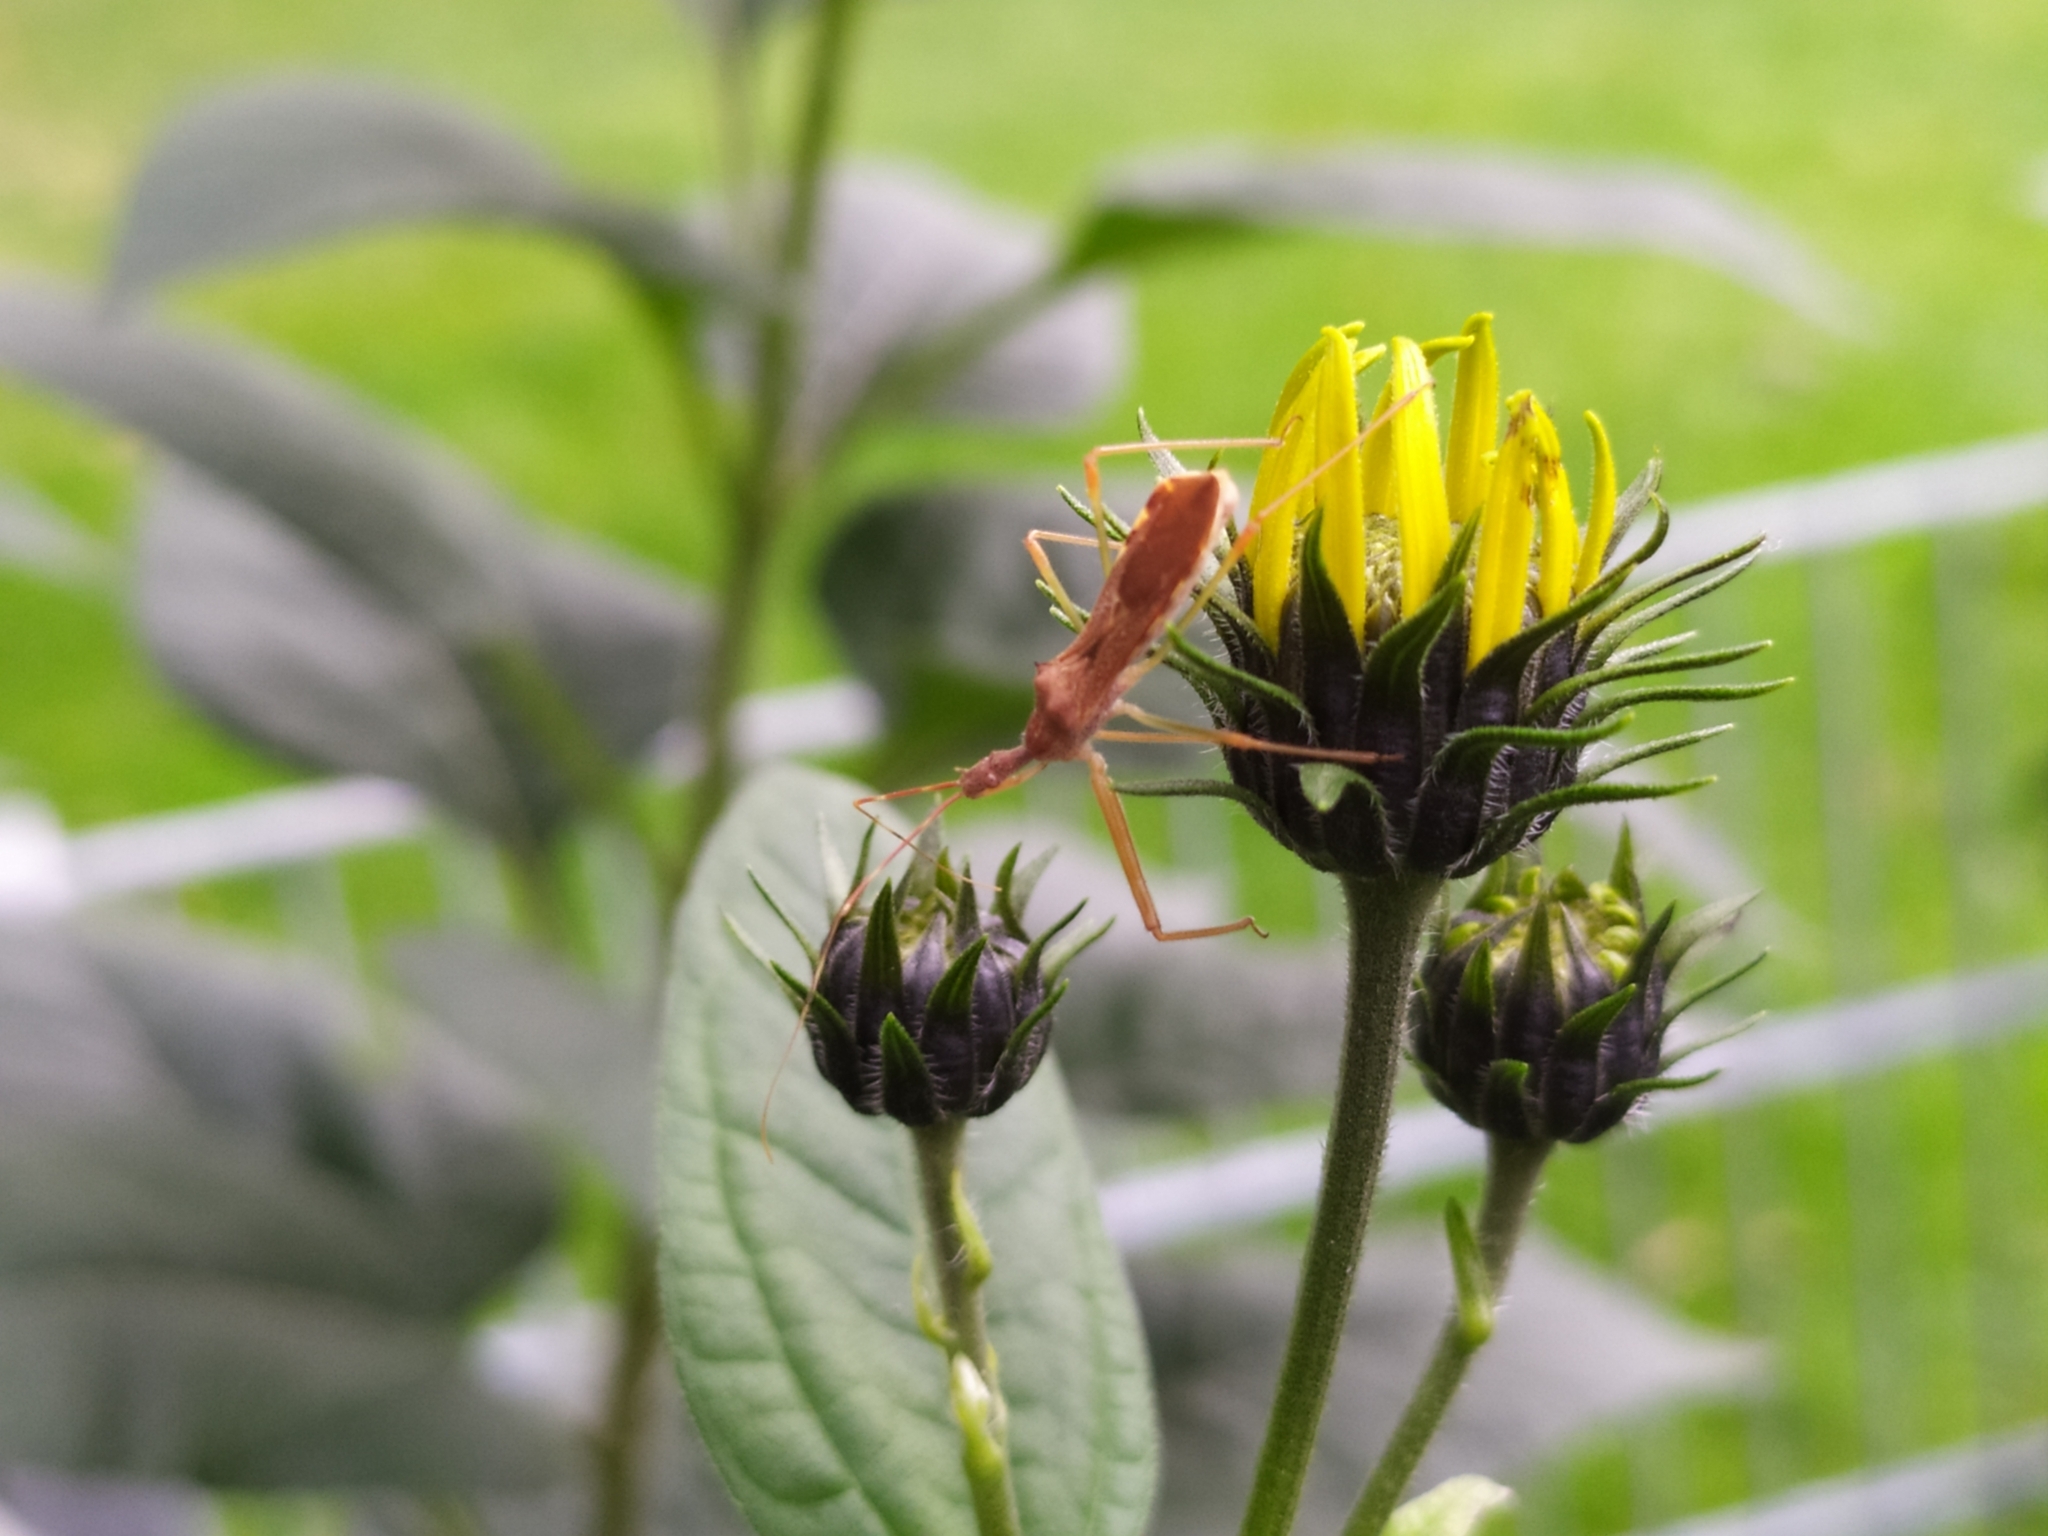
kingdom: Animalia
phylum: Arthropoda
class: Insecta
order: Hemiptera
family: Reduviidae
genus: Nagusta
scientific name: Nagusta goedelii
